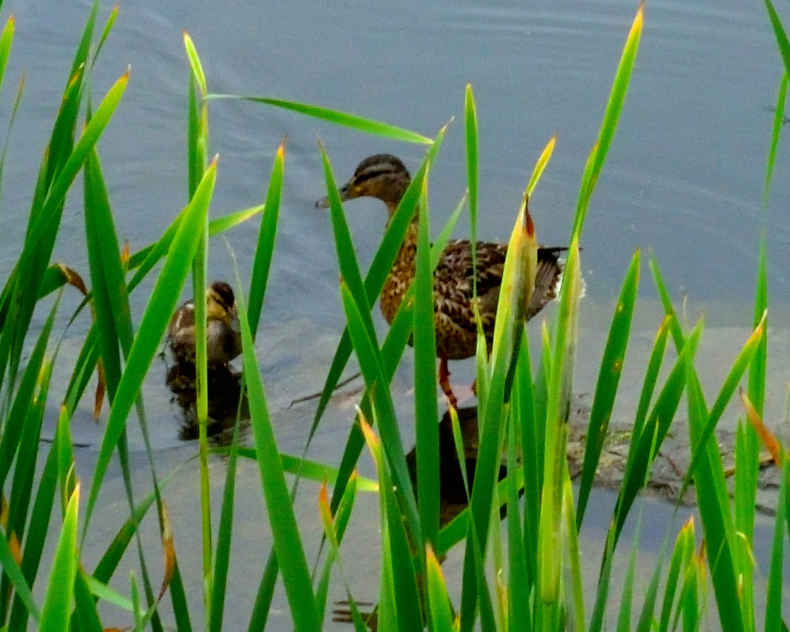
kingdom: Animalia
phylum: Chordata
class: Aves
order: Anseriformes
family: Anatidae
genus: Anas
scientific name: Anas platyrhynchos
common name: Mallard
